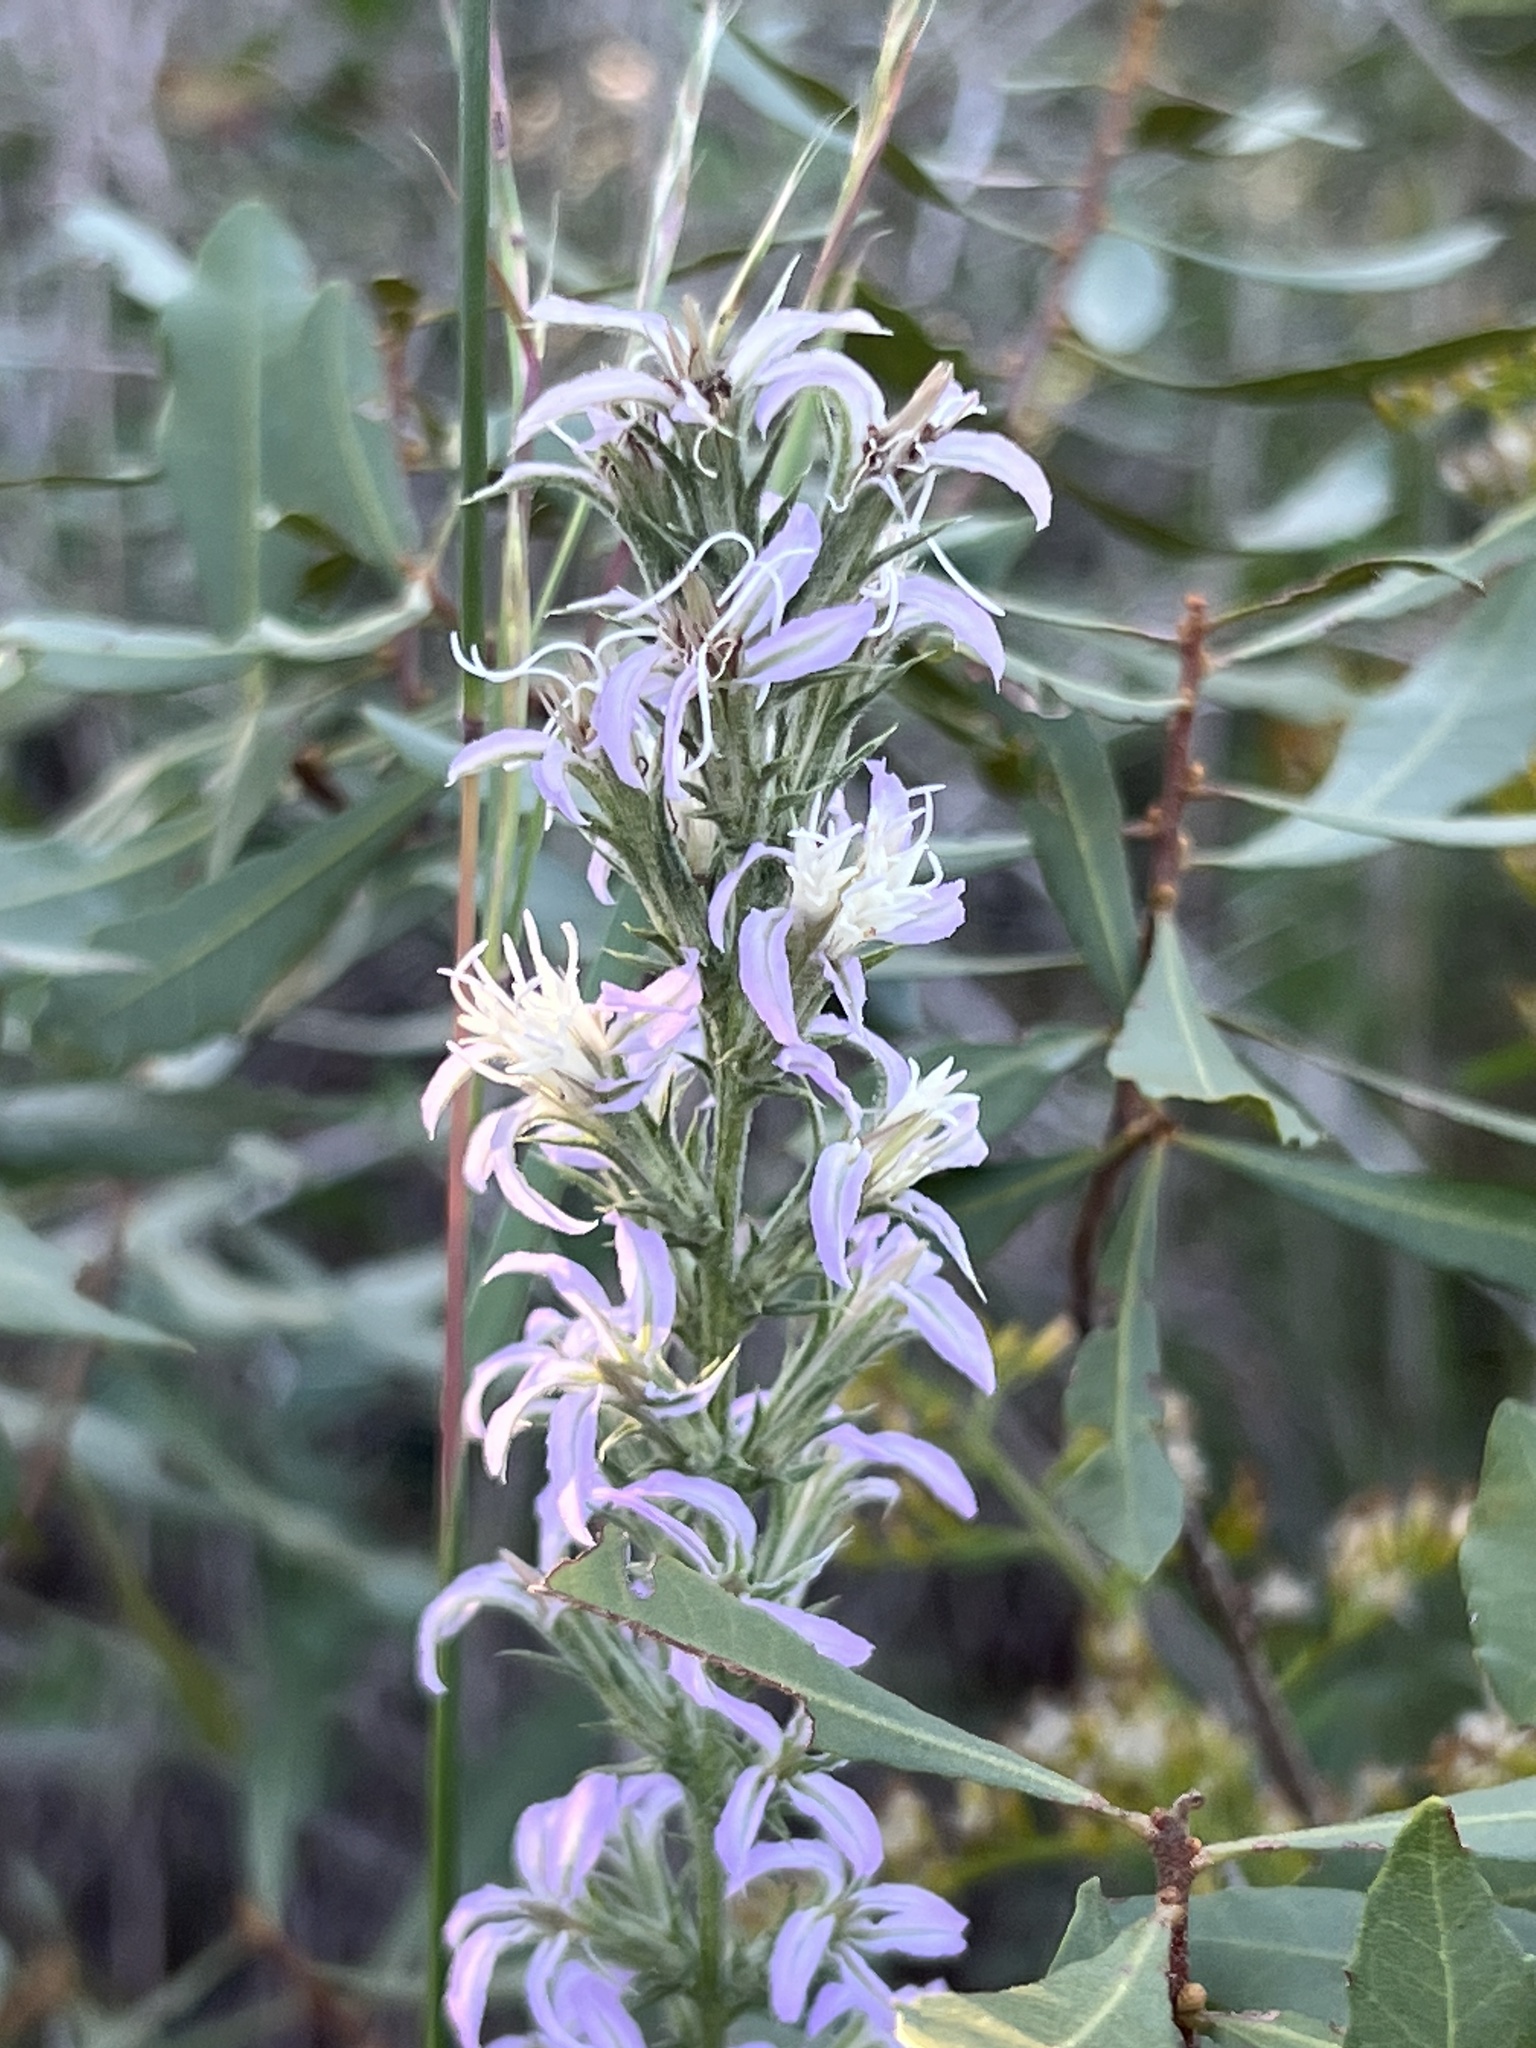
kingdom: Plantae
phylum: Tracheophyta
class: Magnoliopsida
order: Asterales
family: Asteraceae
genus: Liatris
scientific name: Liatris carizzana
